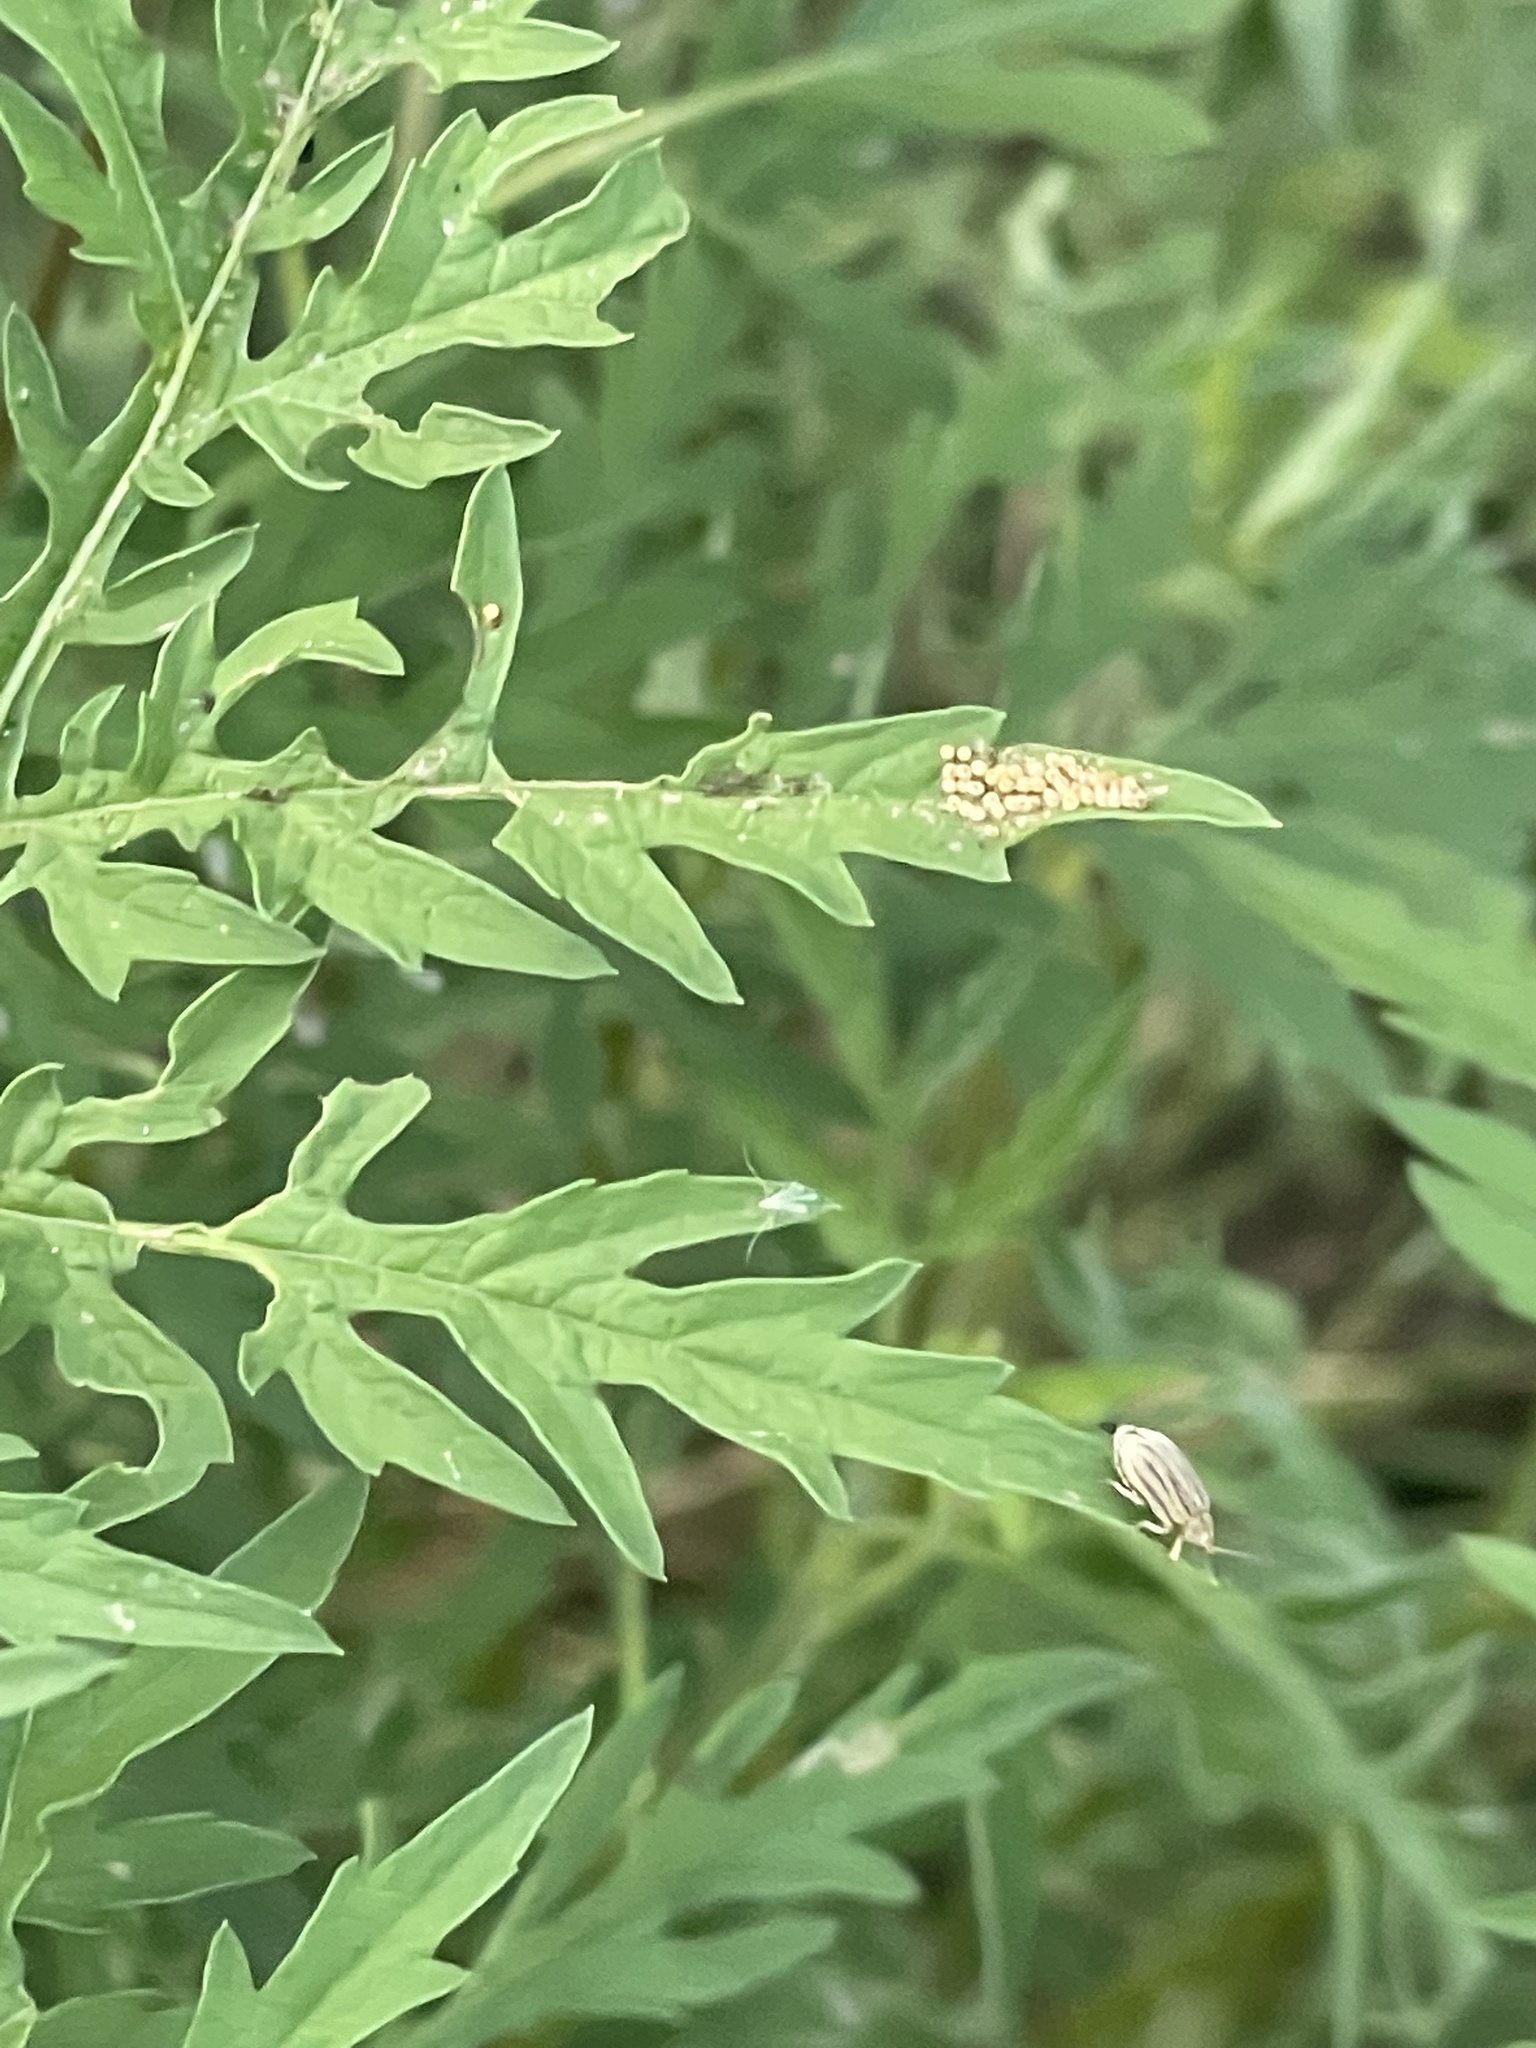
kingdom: Animalia
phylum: Arthropoda
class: Insecta
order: Coleoptera
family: Chrysomelidae
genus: Ophraella
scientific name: Ophraella communa
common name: Ragweed leaf beetle
